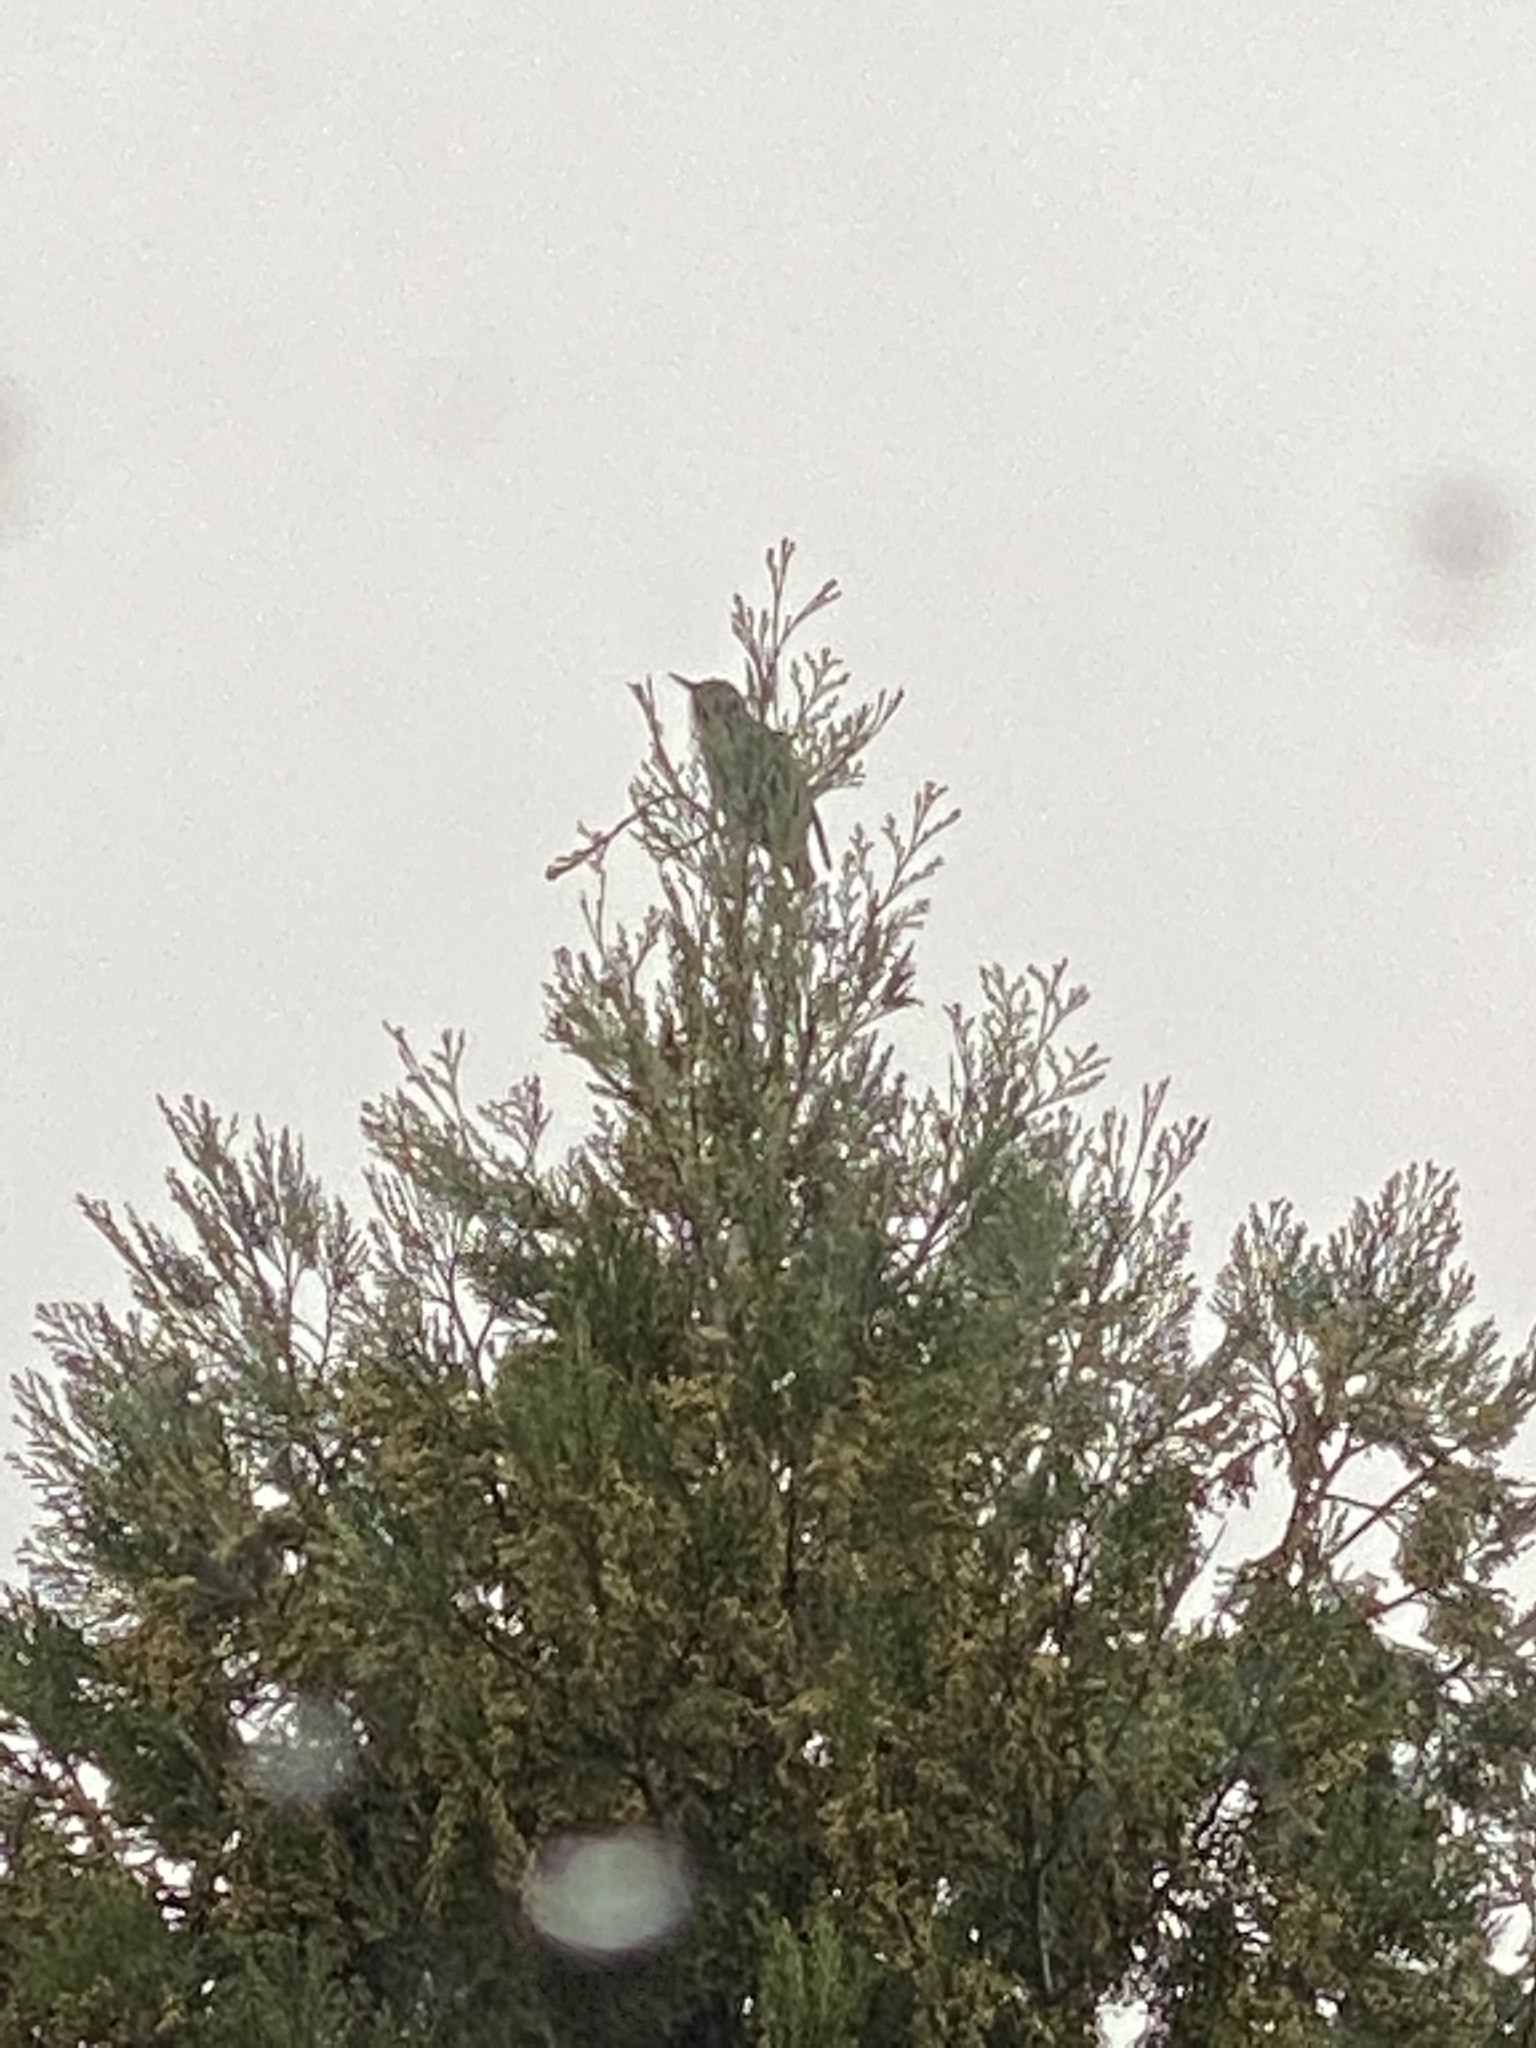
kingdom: Animalia
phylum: Chordata
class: Aves
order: Passeriformes
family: Sturnidae
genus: Sturnus
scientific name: Sturnus vulgaris
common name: Common starling
